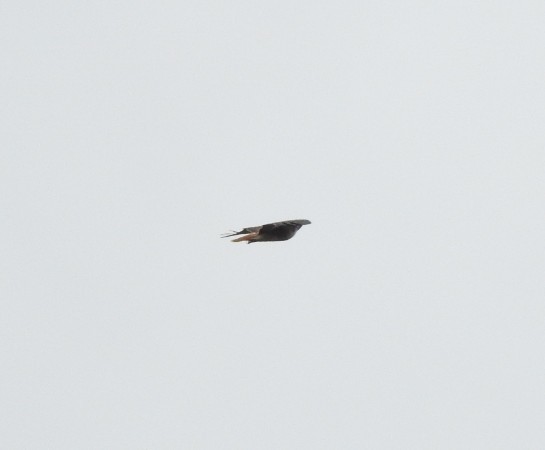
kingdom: Animalia
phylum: Chordata
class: Aves
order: Accipitriformes
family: Accipitridae
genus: Buteo
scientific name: Buteo jamaicensis
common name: Red-tailed hawk
